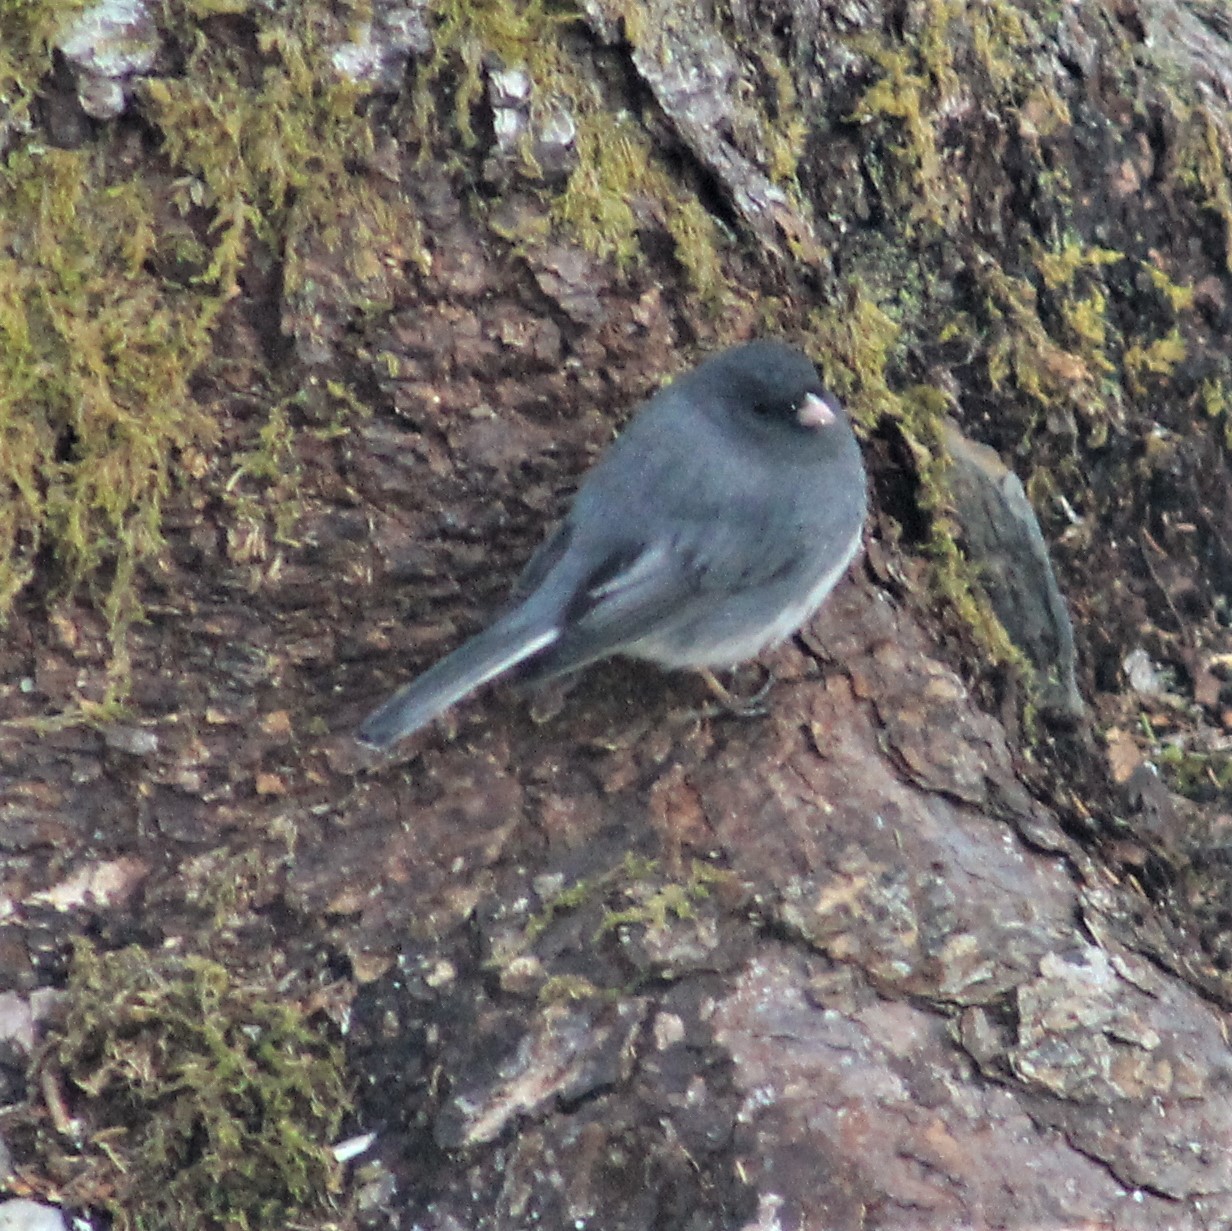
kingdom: Animalia
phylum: Chordata
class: Aves
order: Passeriformes
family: Passerellidae
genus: Junco
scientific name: Junco hyemalis
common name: Dark-eyed junco
